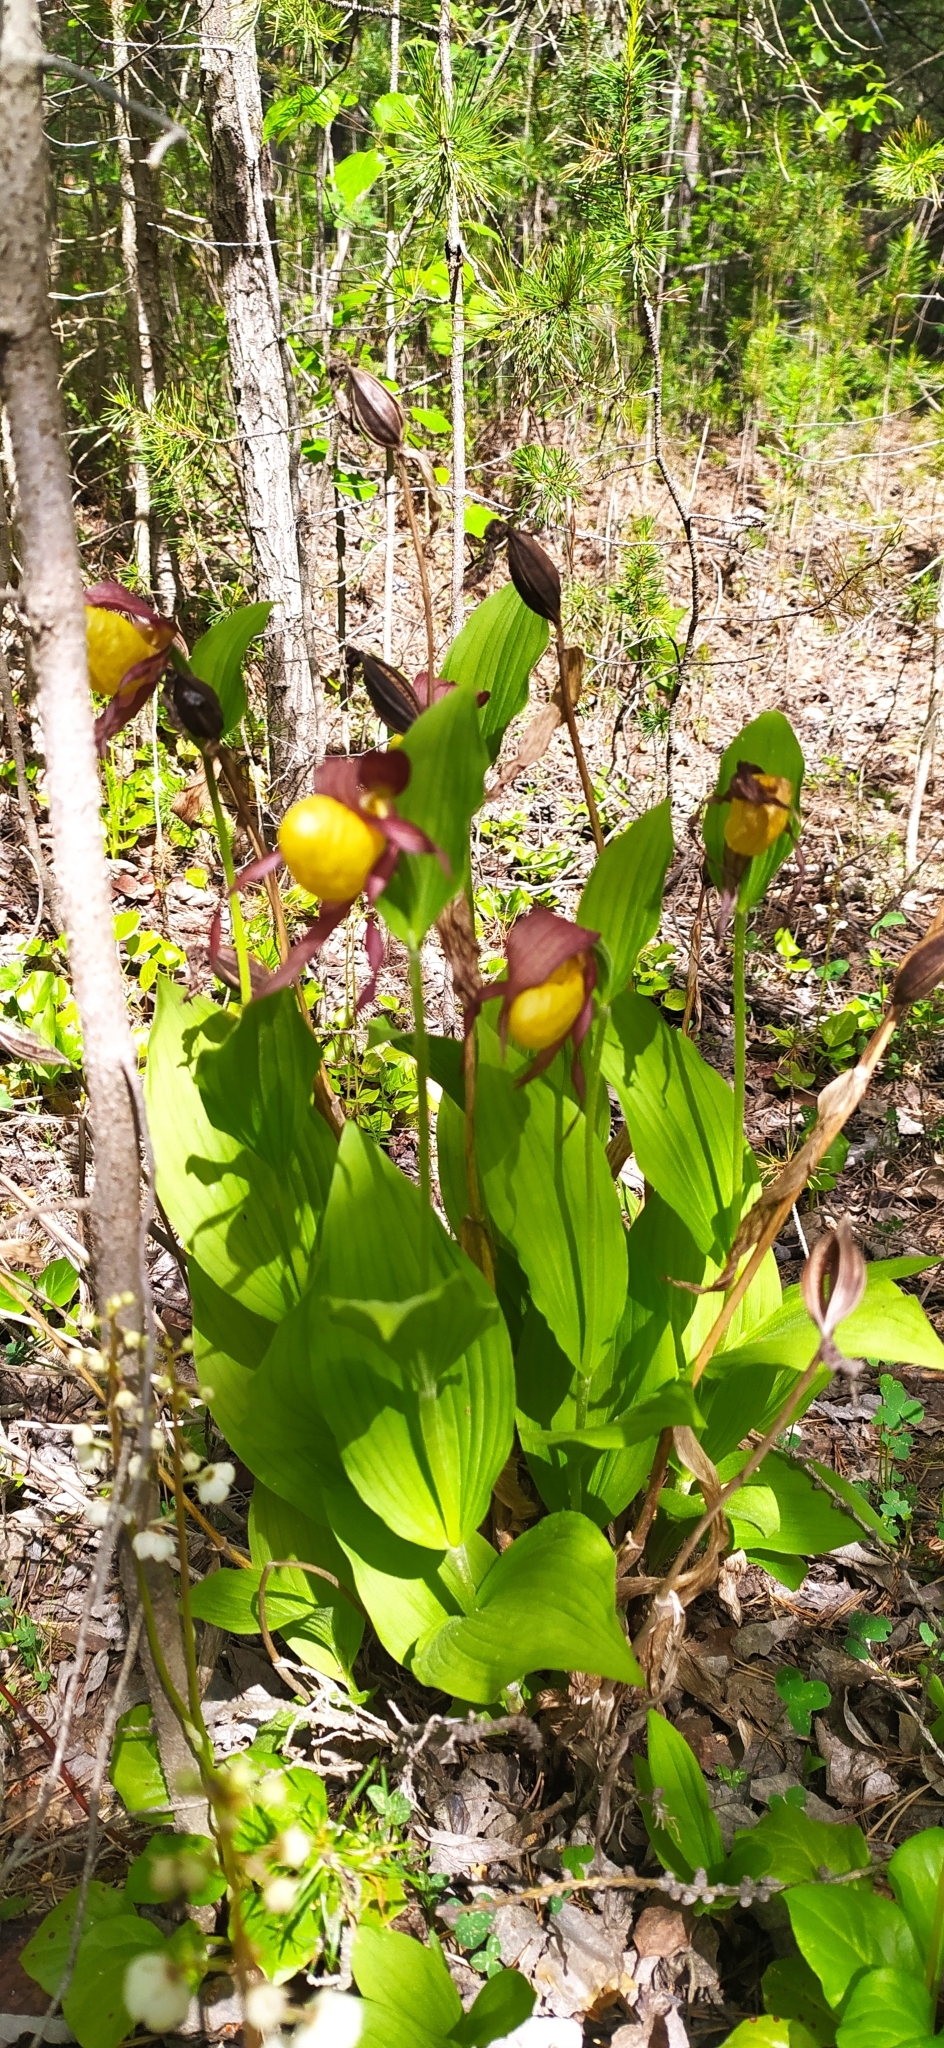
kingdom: Plantae
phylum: Tracheophyta
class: Liliopsida
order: Asparagales
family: Orchidaceae
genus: Cypripedium
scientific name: Cypripedium calceolus
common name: Lady's-slipper
